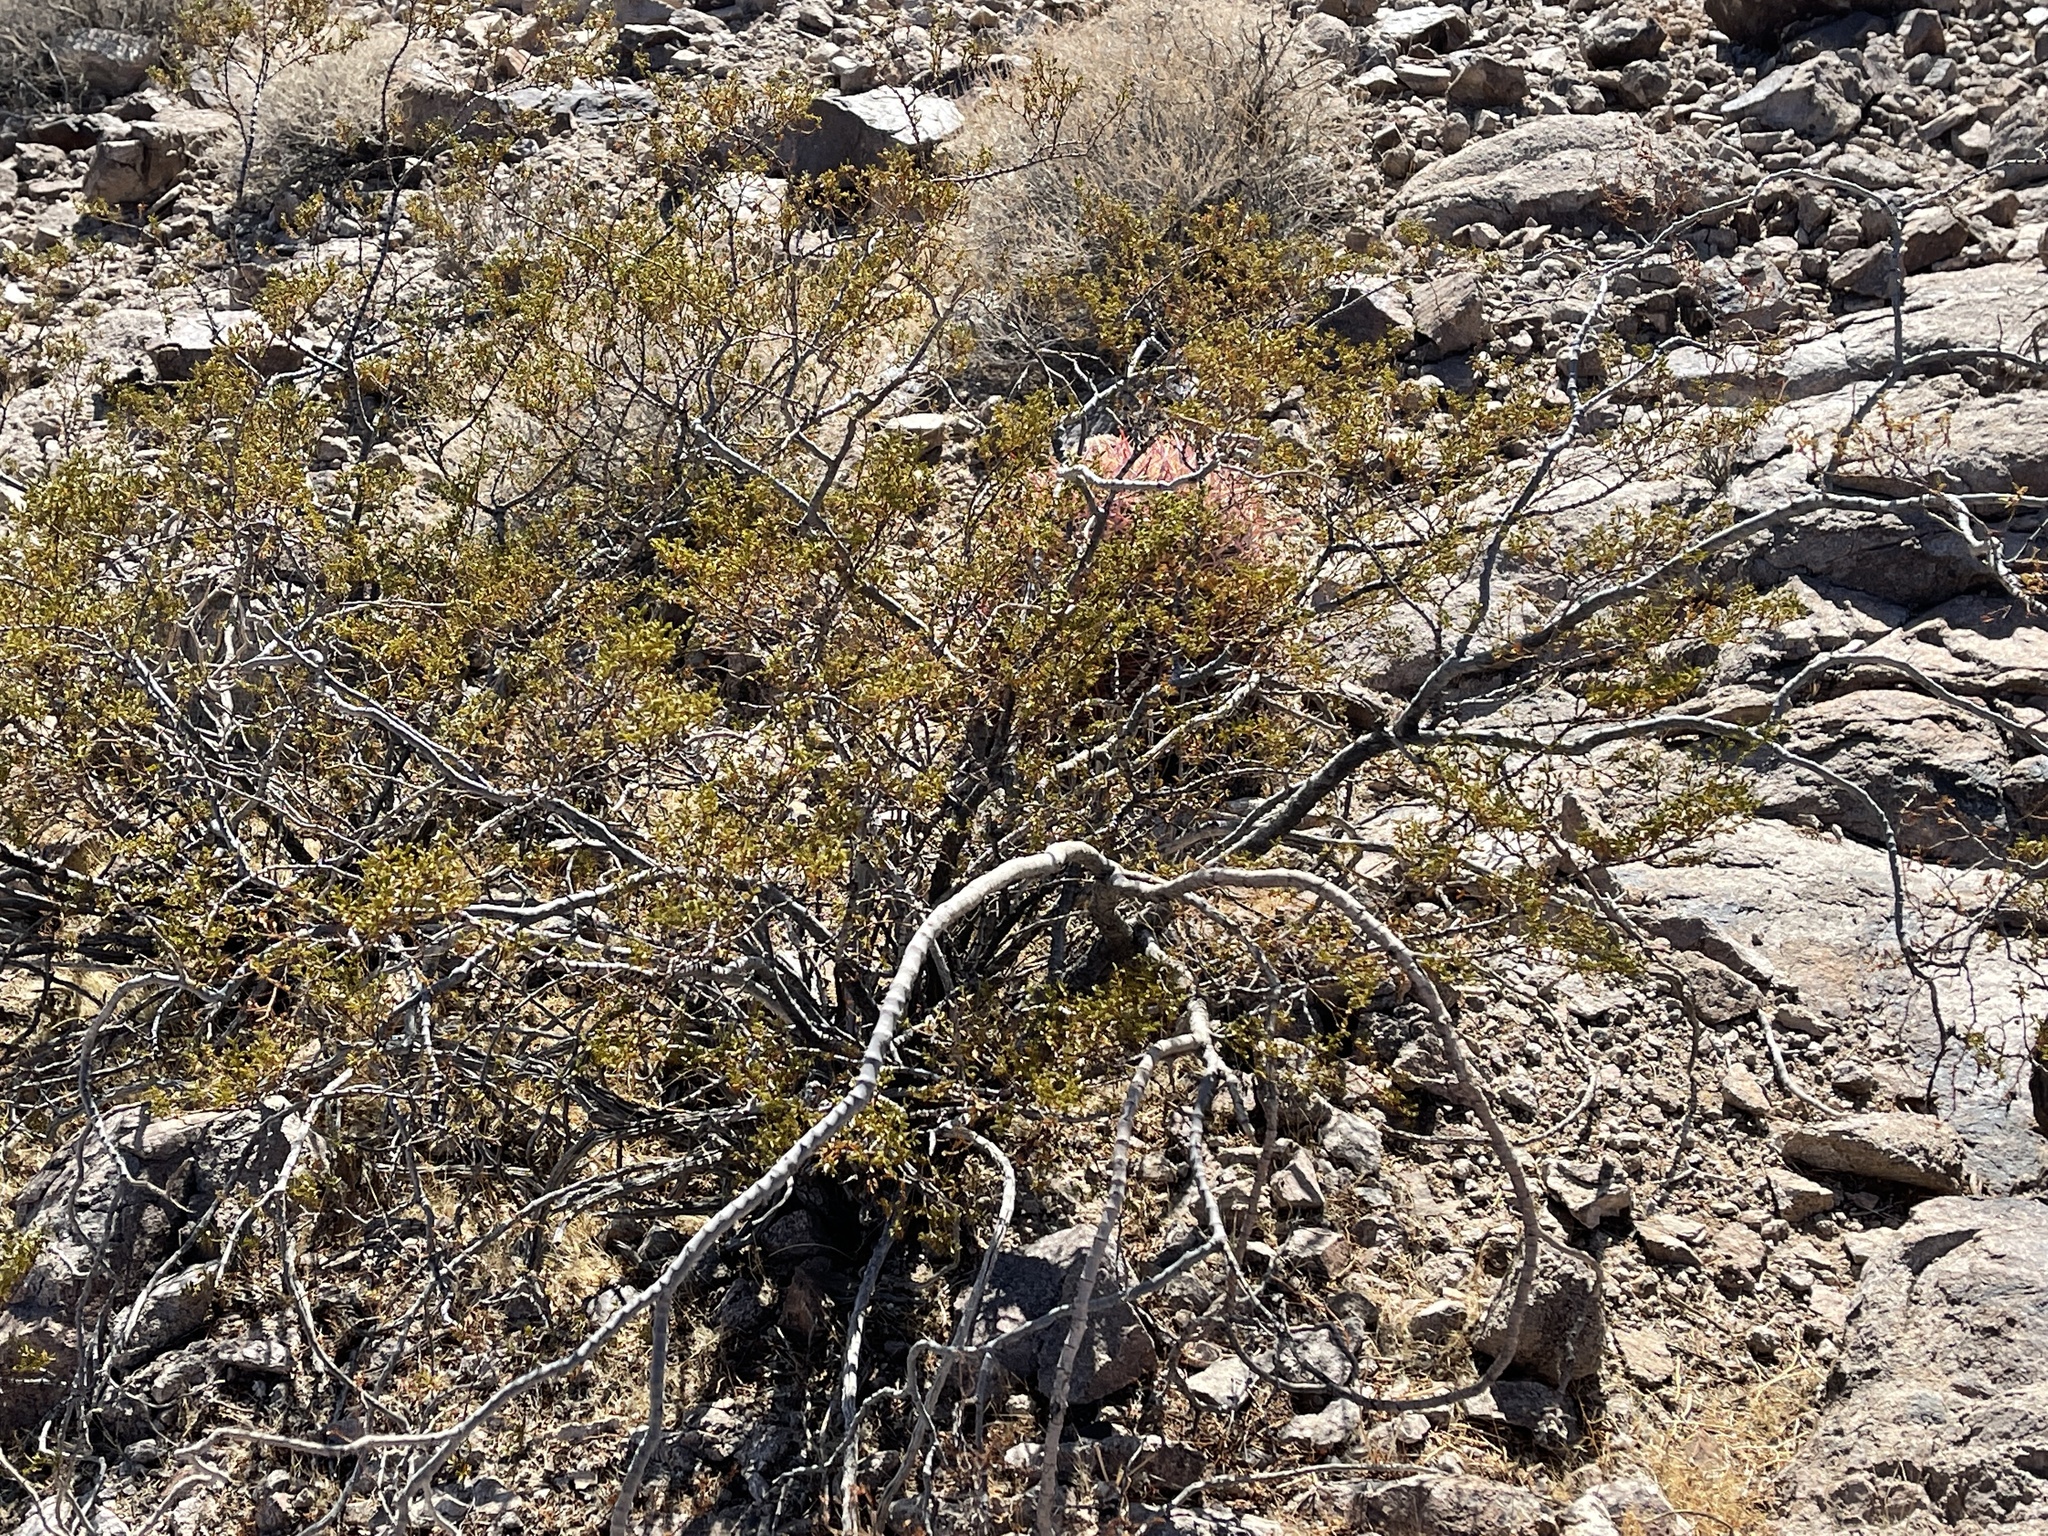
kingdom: Plantae
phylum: Tracheophyta
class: Magnoliopsida
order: Zygophyllales
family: Zygophyllaceae
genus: Larrea
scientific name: Larrea tridentata
